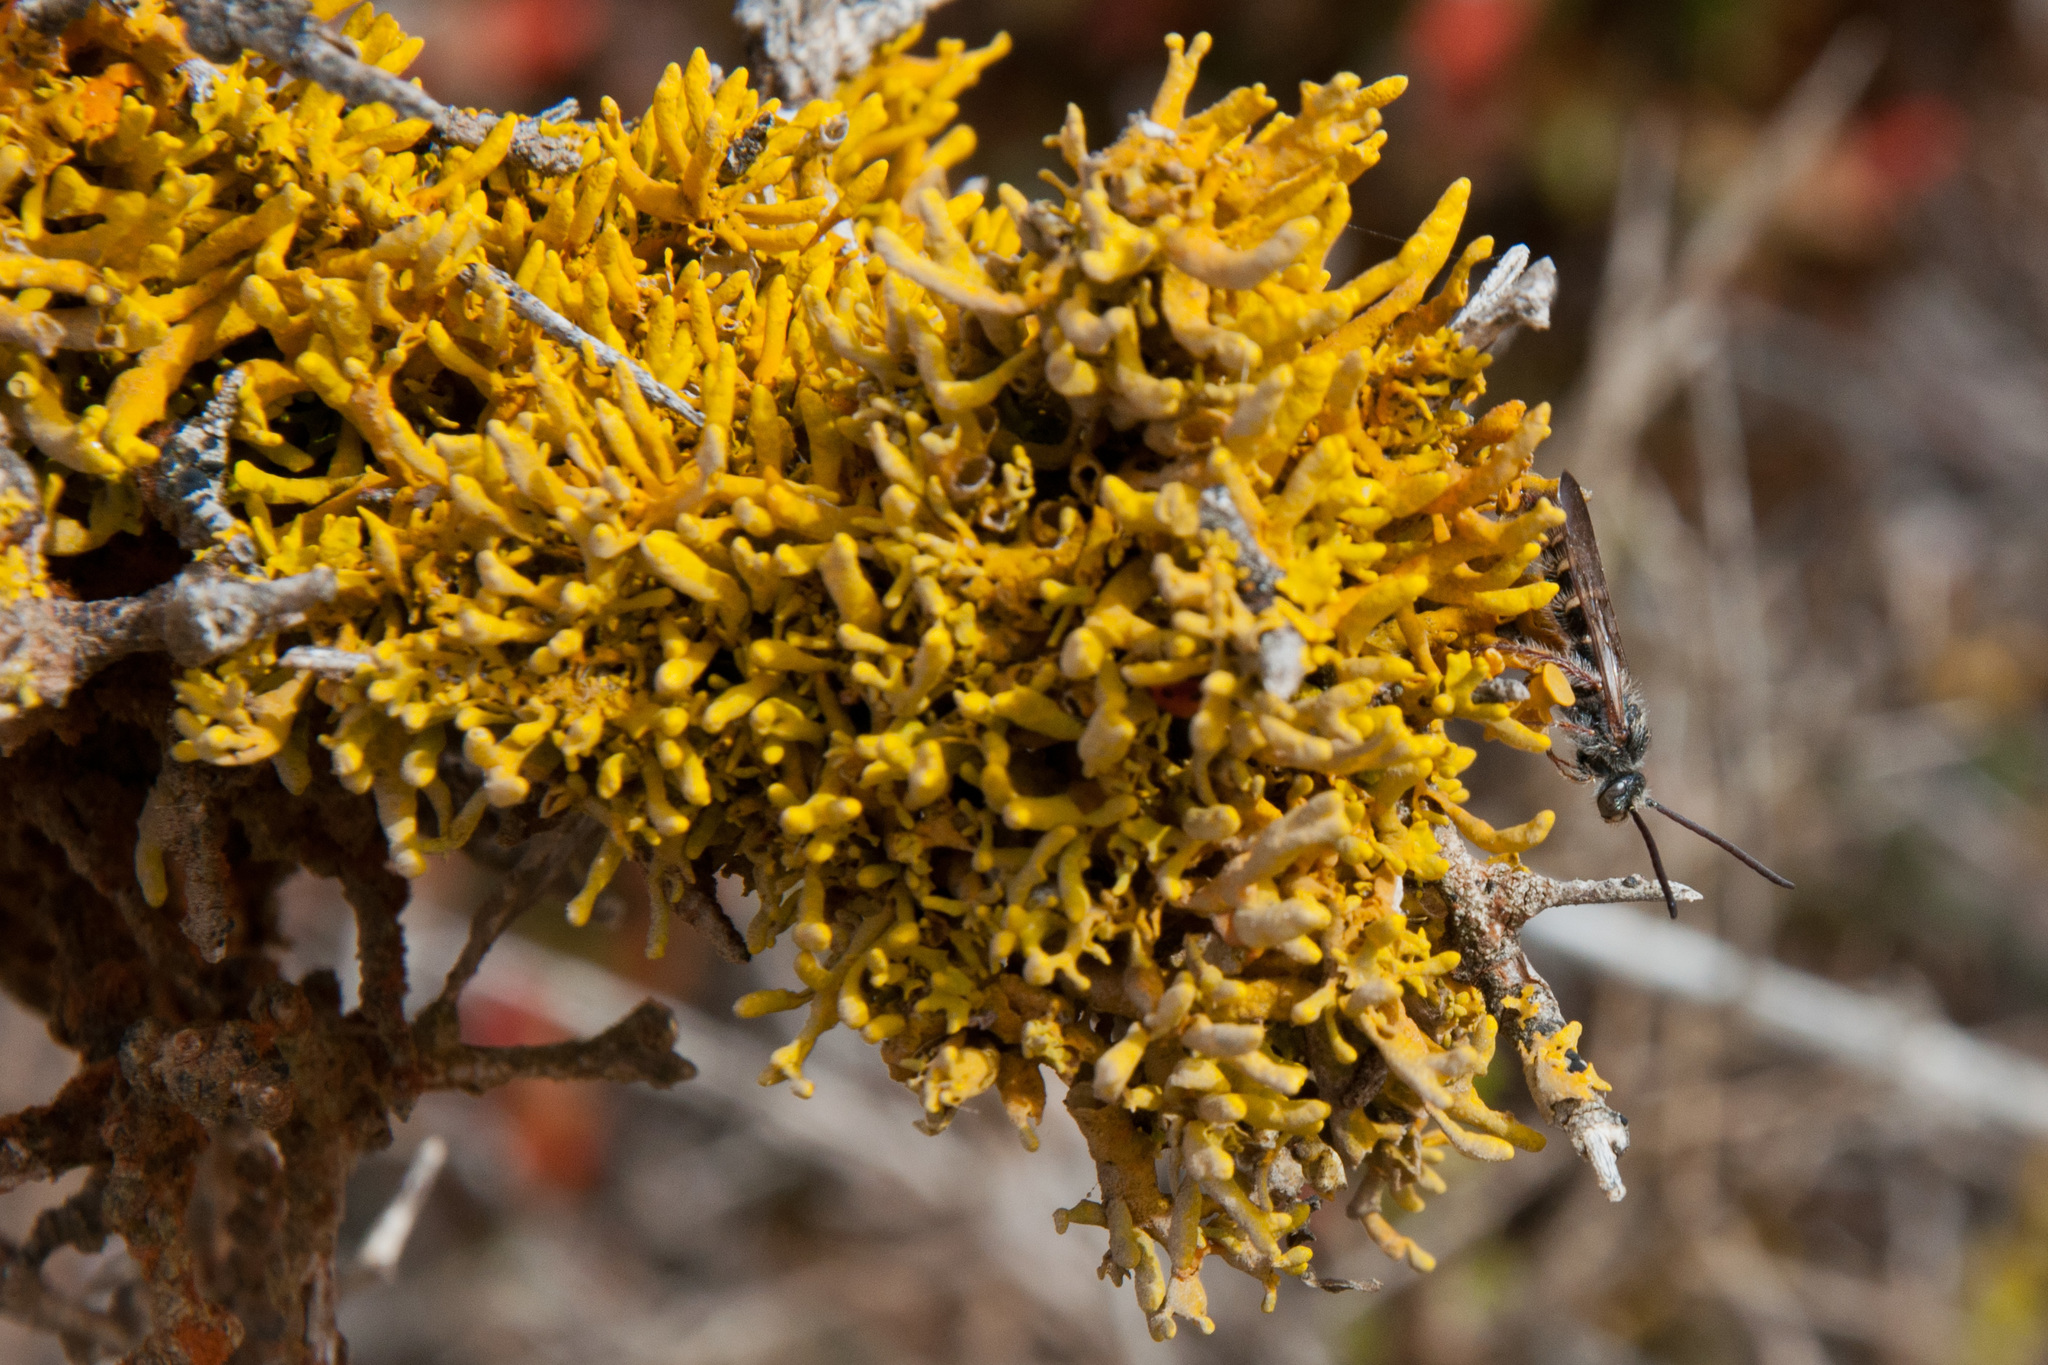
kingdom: Fungi
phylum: Ascomycota
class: Lecanoromycetes
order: Teloschistales
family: Teloschistaceae
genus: Dufourea
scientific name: Dufourea flammea
